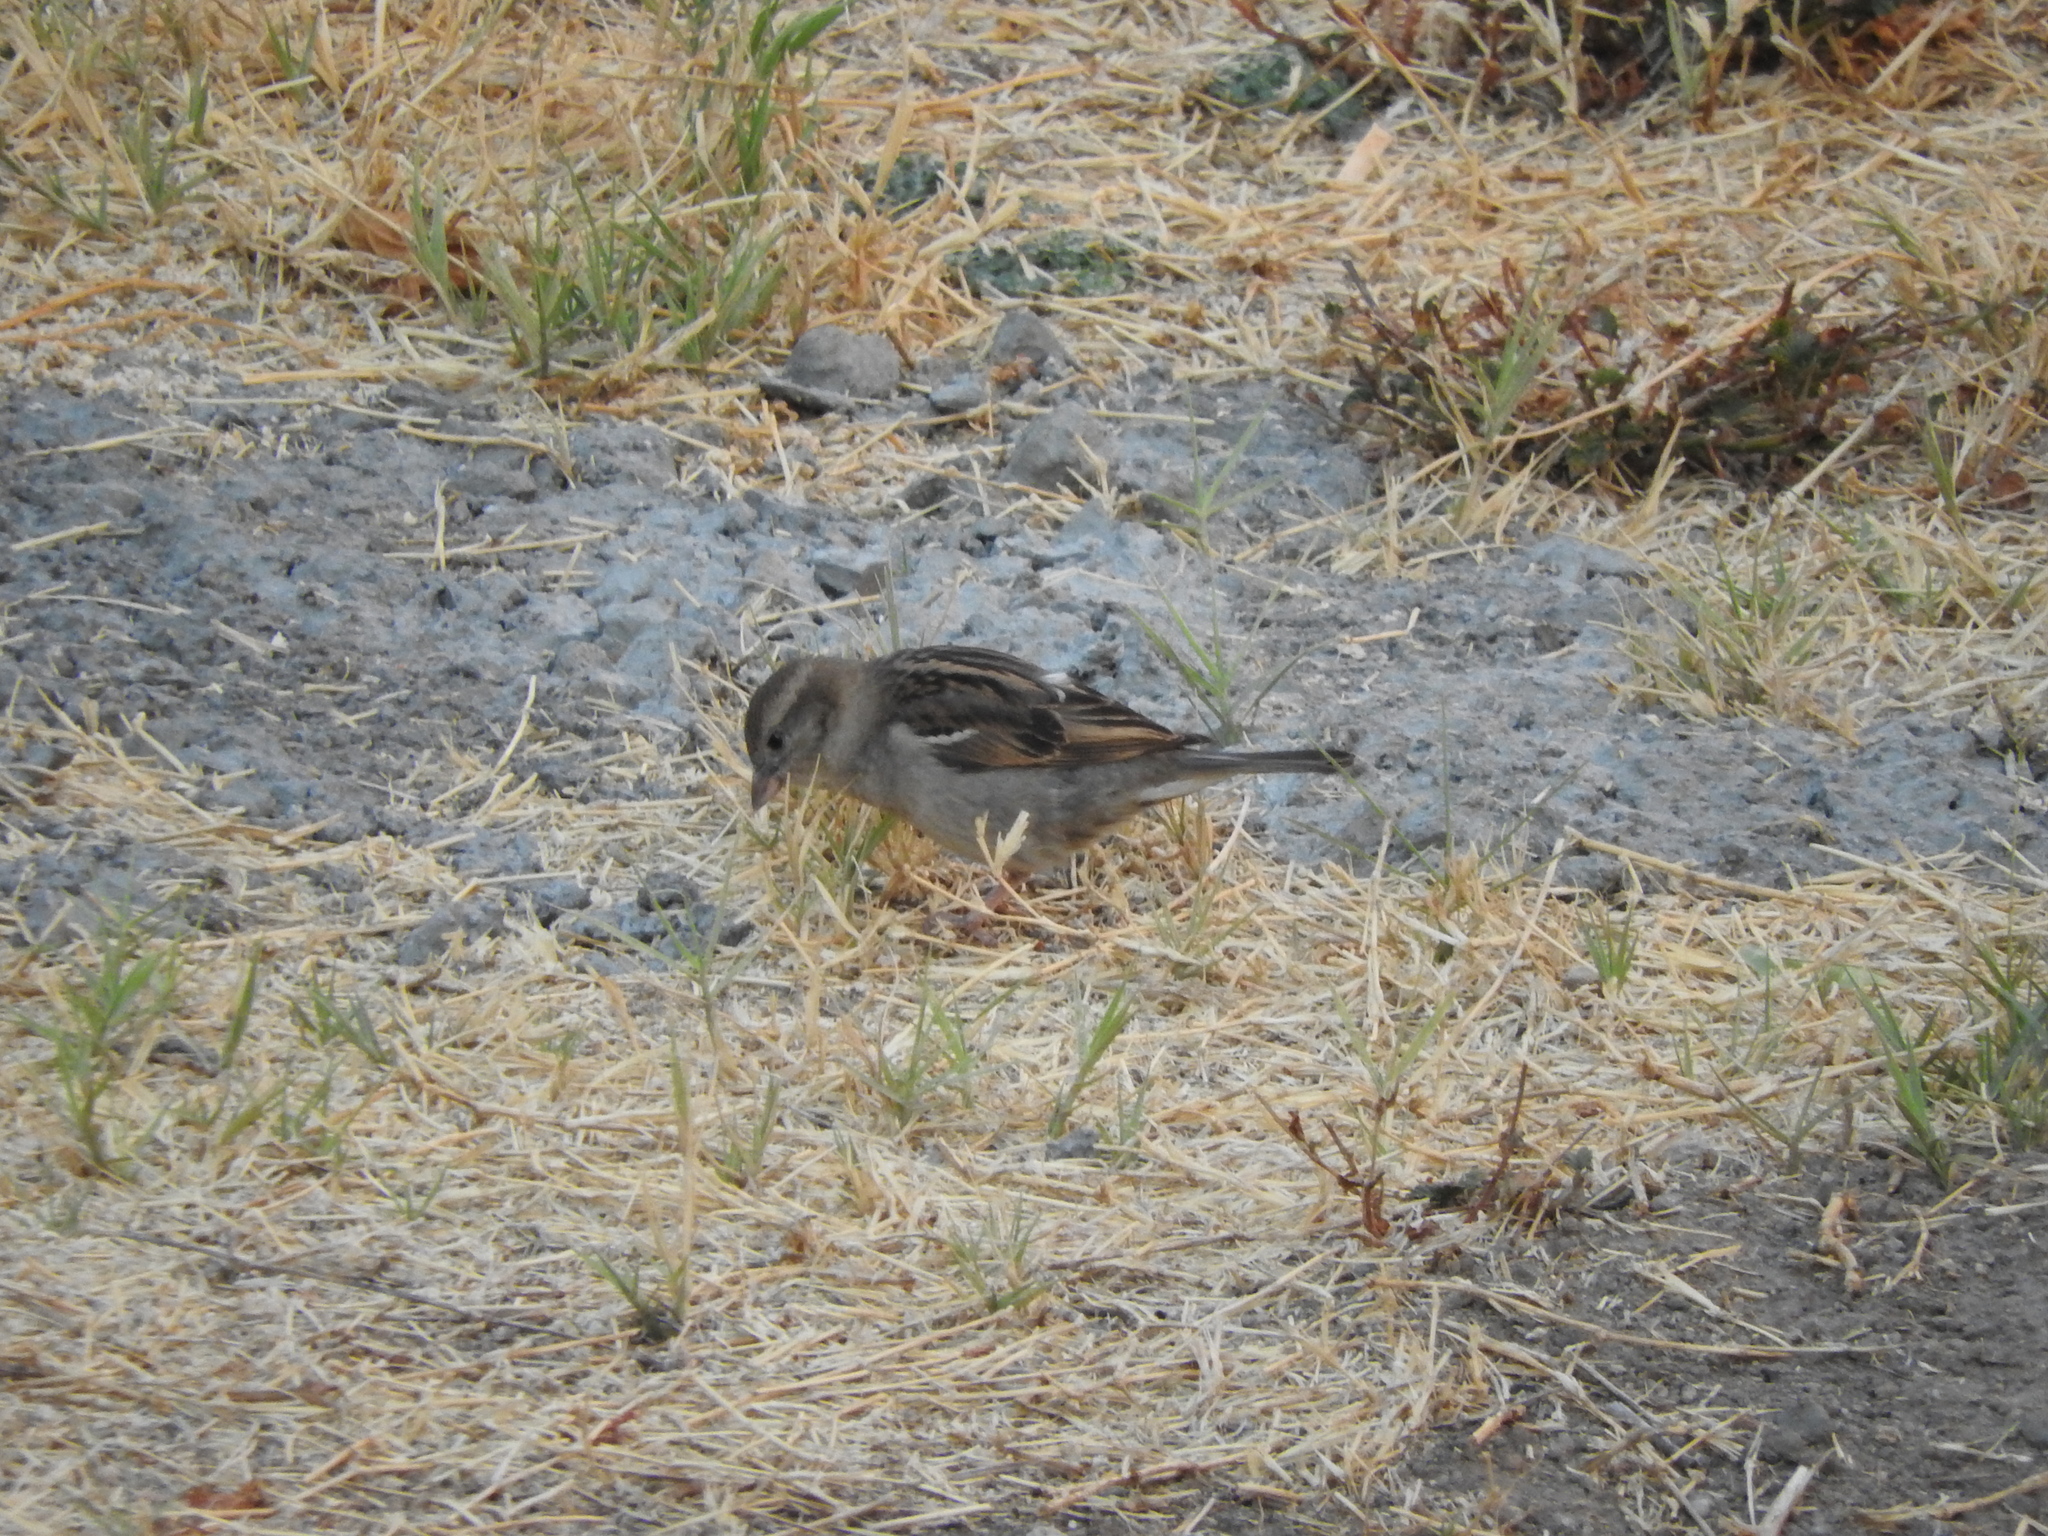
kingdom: Animalia
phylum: Chordata
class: Aves
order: Passeriformes
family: Passeridae
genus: Passer
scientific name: Passer domesticus
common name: House sparrow
